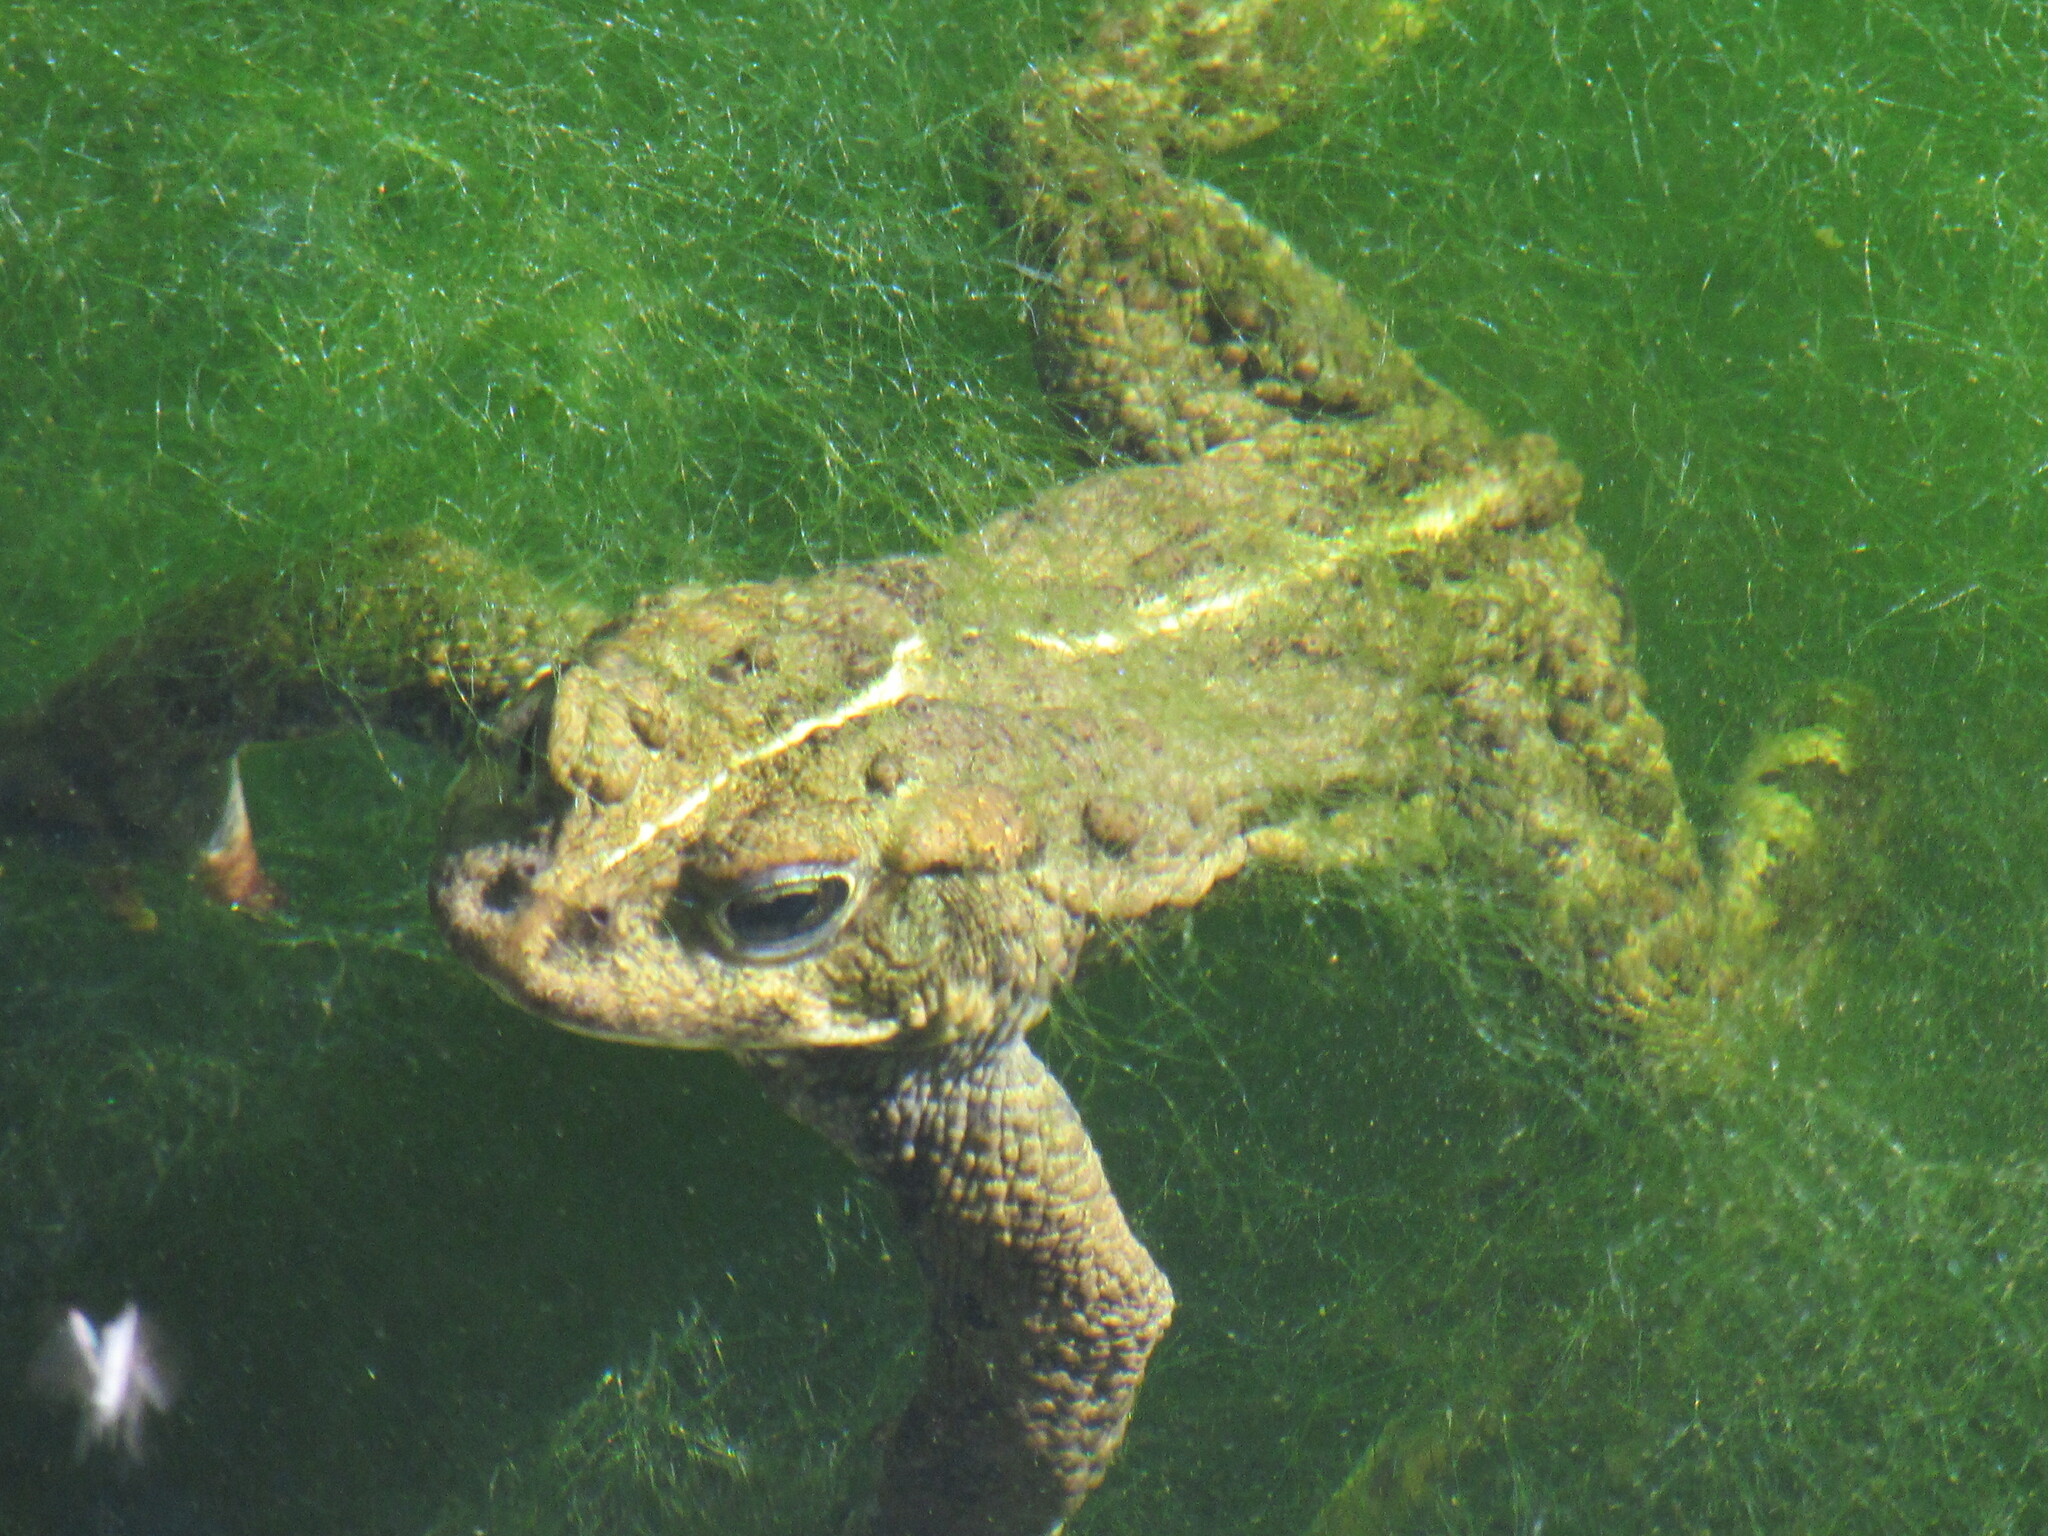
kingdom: Animalia
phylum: Chordata
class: Amphibia
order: Anura
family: Bufonidae
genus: Anaxyrus
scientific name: Anaxyrus boreas
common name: Western toad
